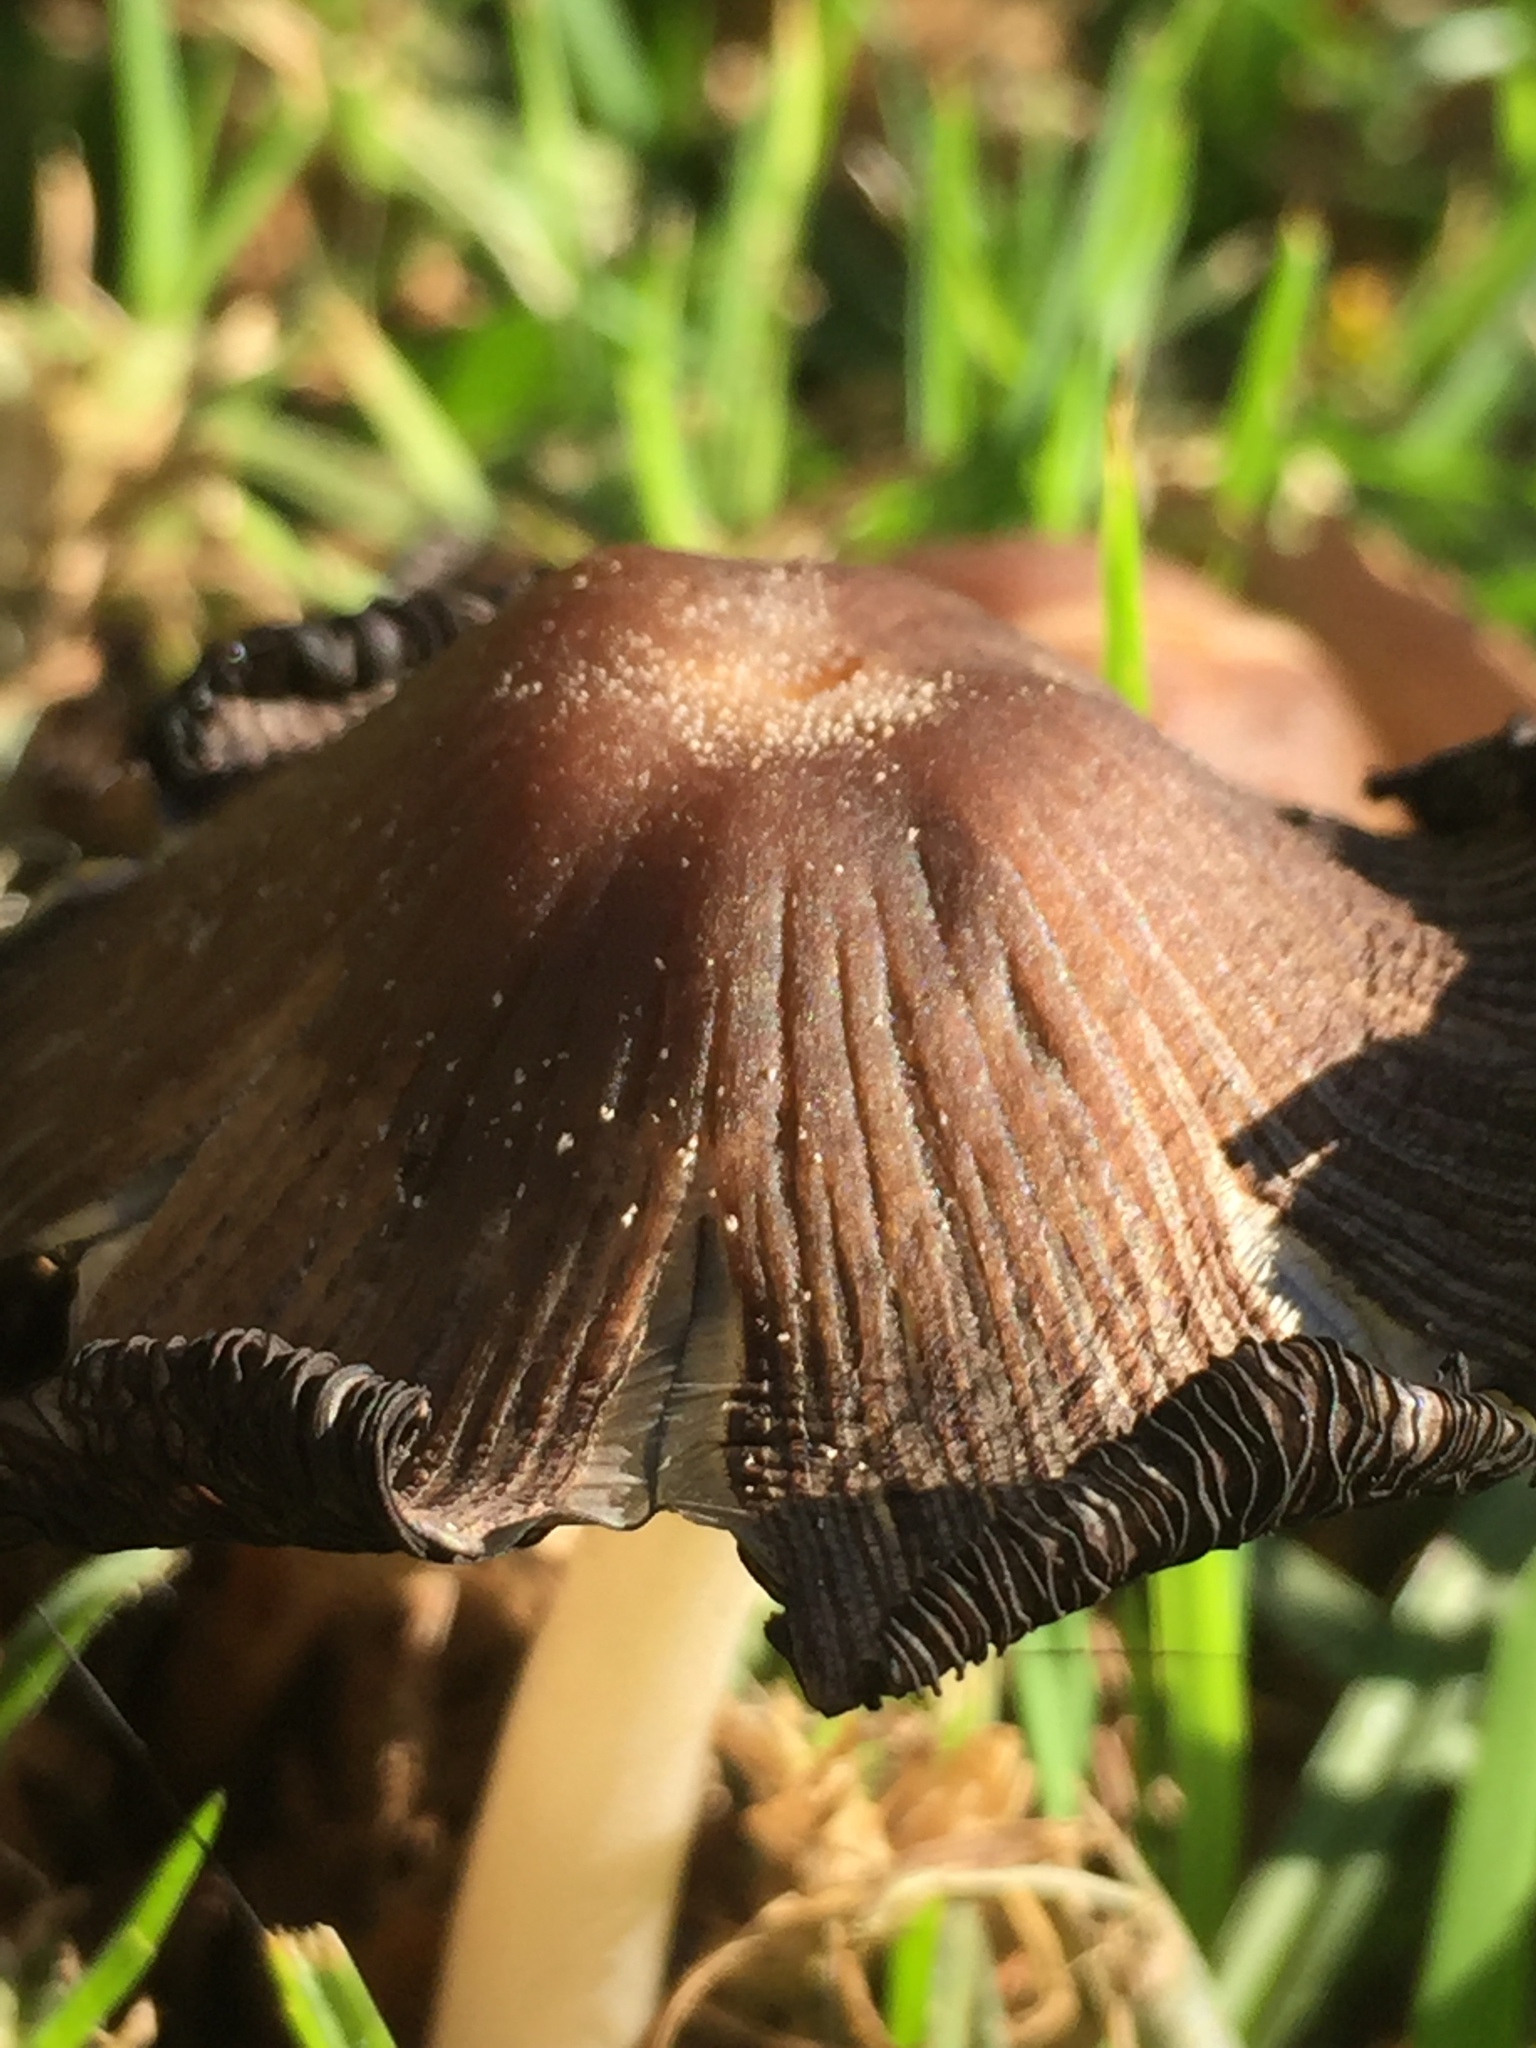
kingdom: Fungi
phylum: Basidiomycota
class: Agaricomycetes
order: Agaricales
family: Psathyrellaceae
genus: Coprinellus
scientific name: Coprinellus micaceus
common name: Glistening ink-cap
